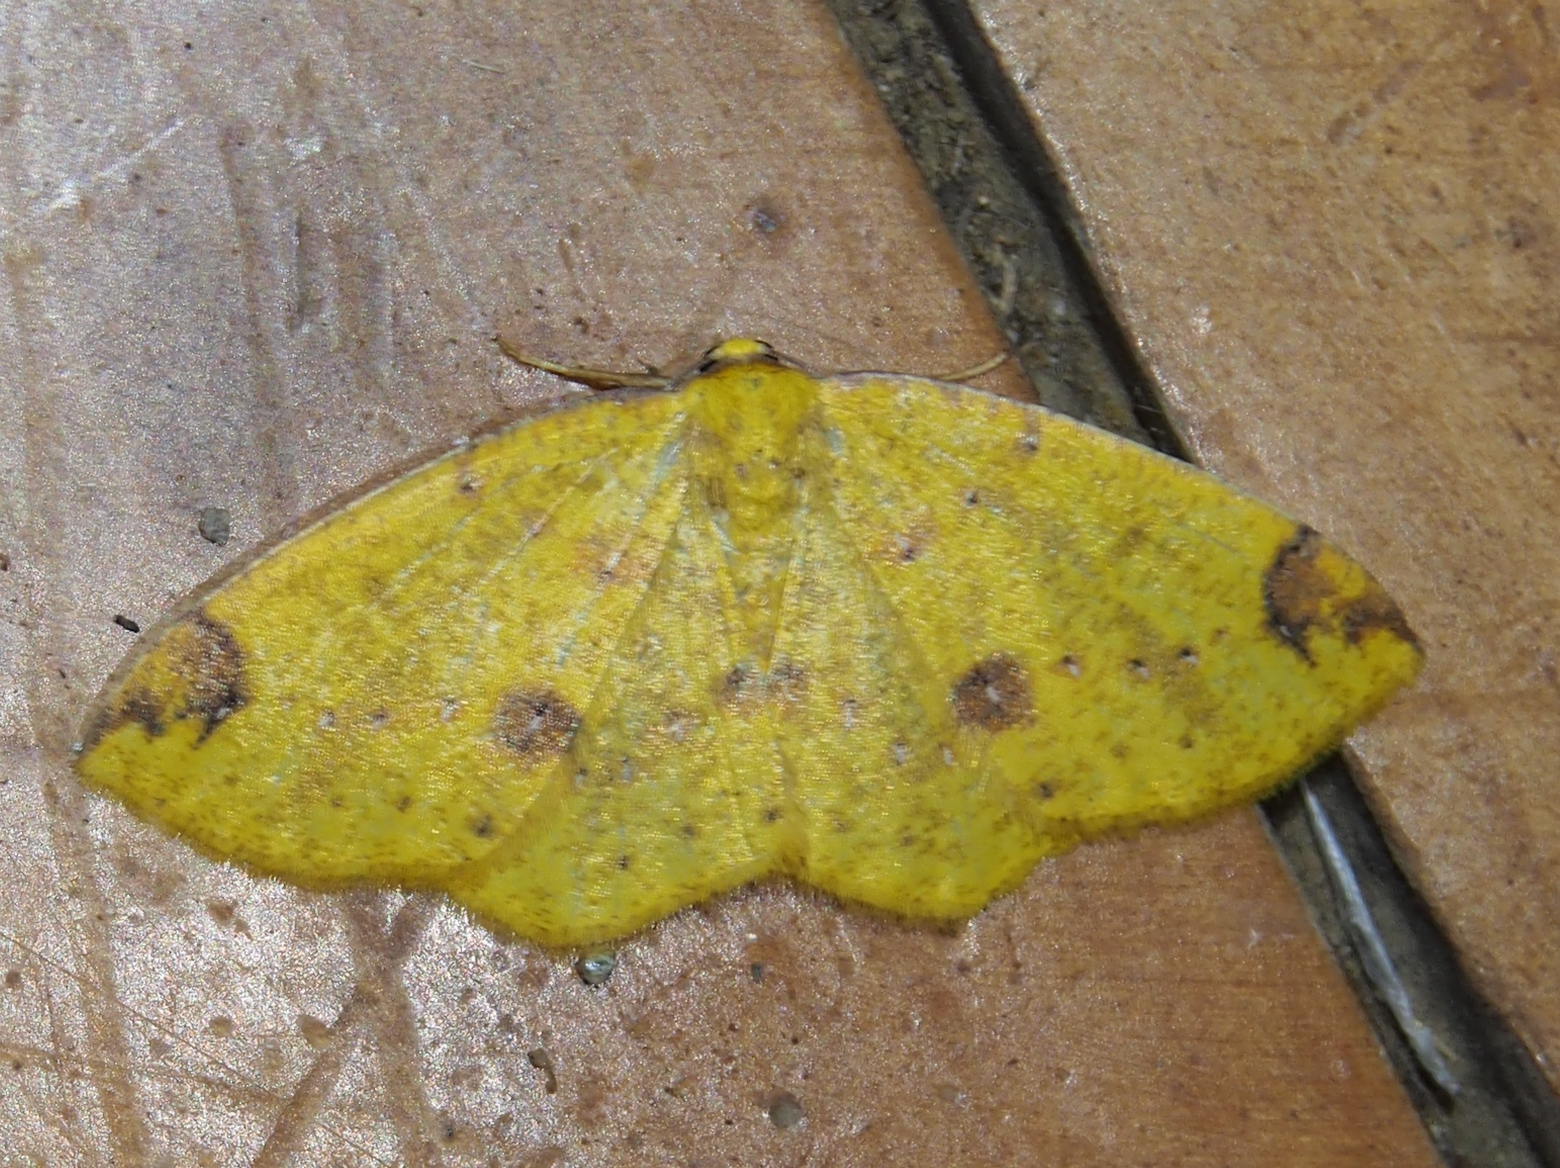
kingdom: Animalia
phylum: Arthropoda
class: Insecta
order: Lepidoptera
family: Geometridae
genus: Periclina
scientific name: Periclina apricaria
